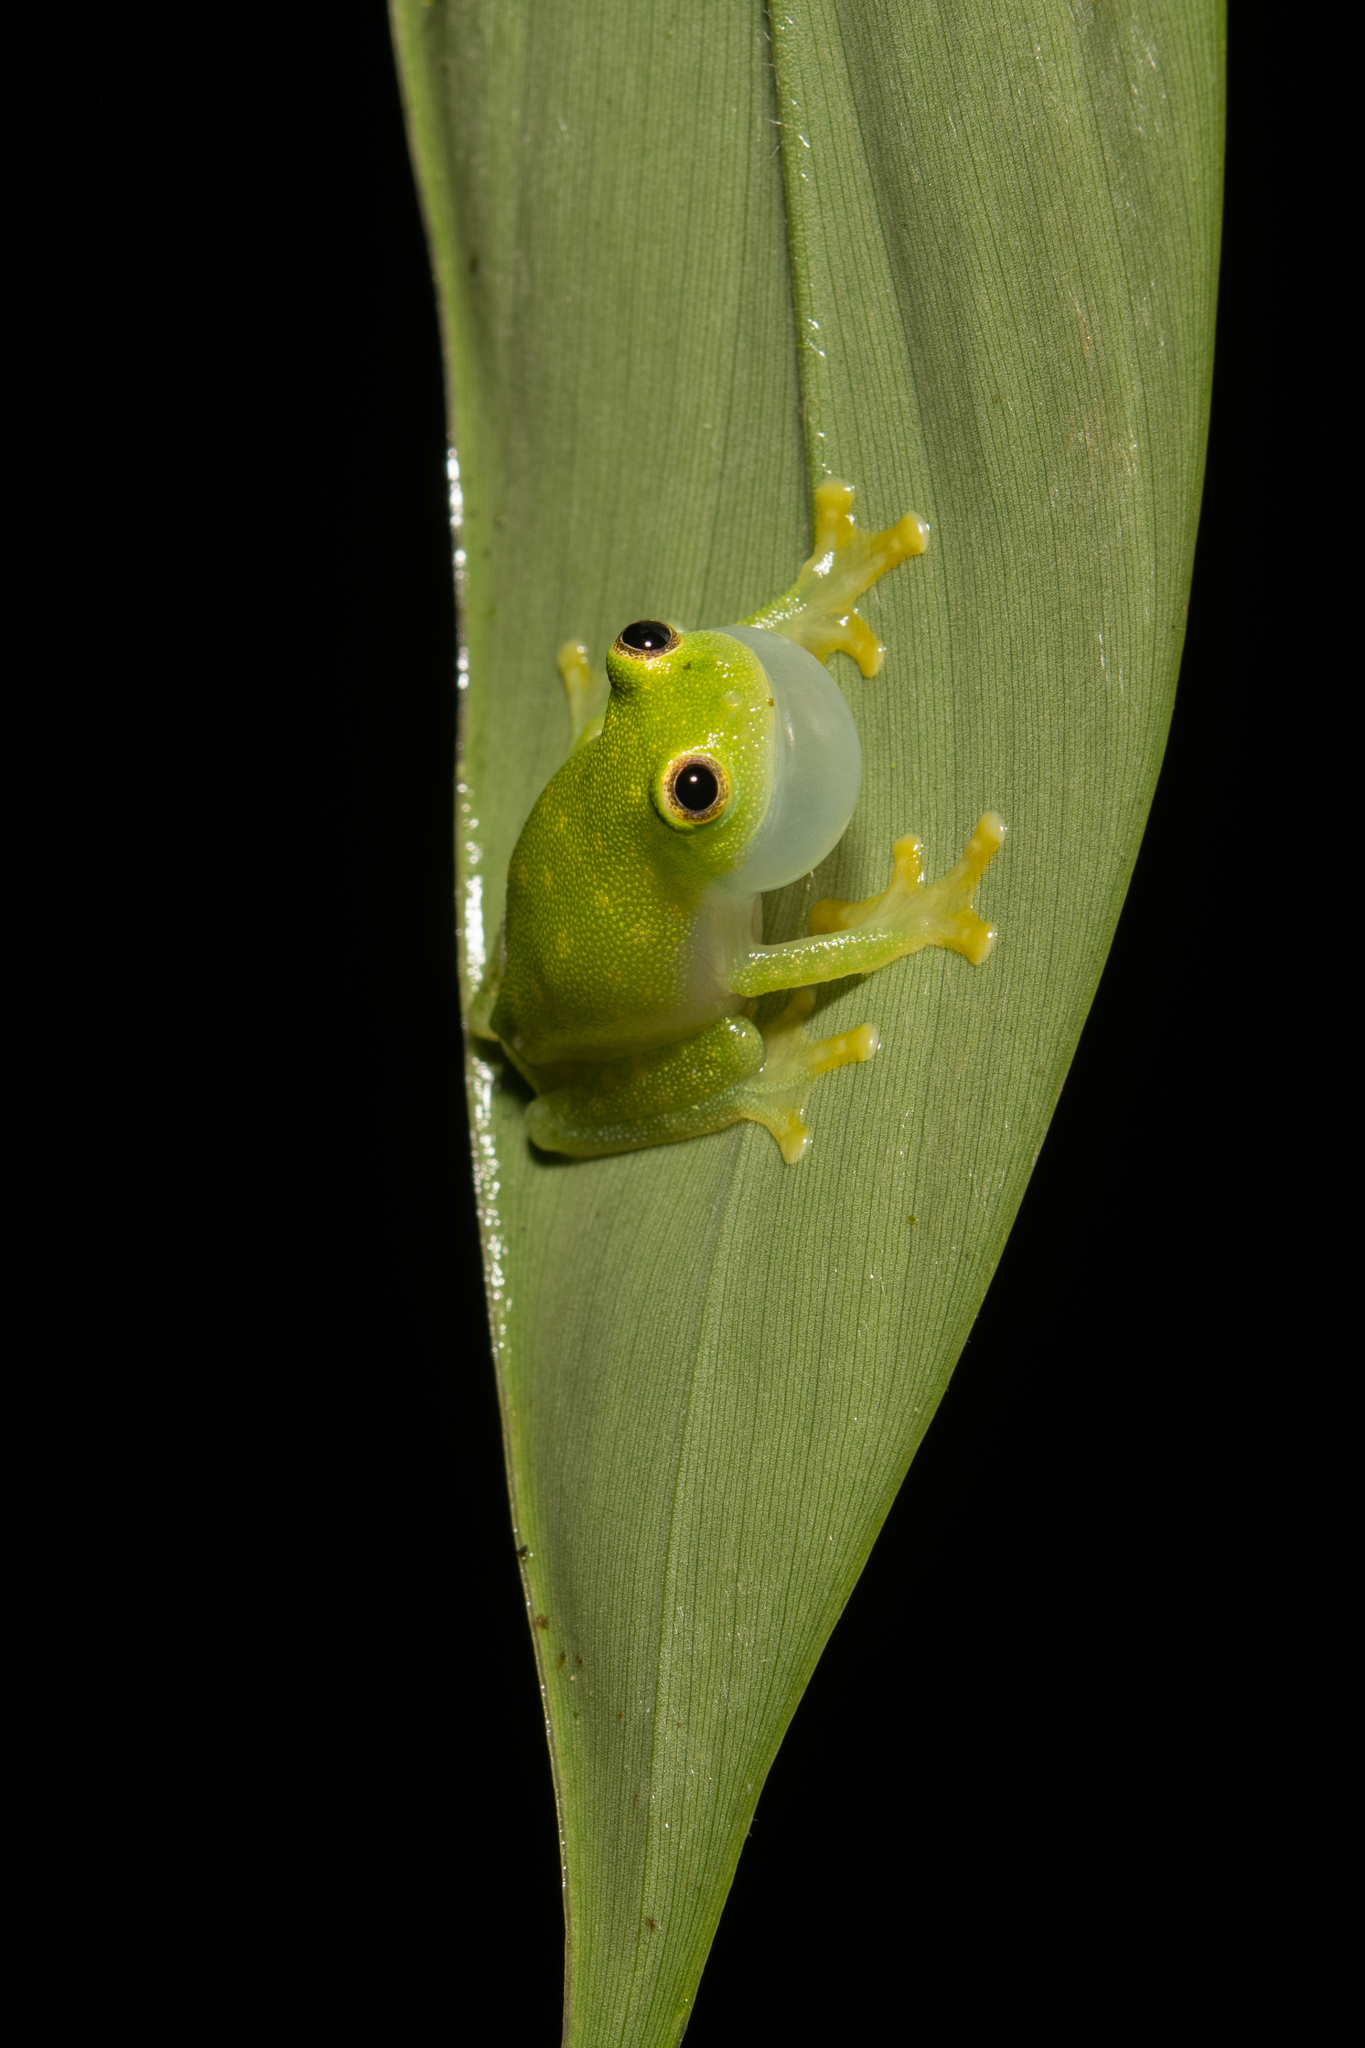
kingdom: Animalia
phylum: Chordata
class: Amphibia
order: Anura
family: Centrolenidae
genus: Hyalinobatrachium
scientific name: Hyalinobatrachium
